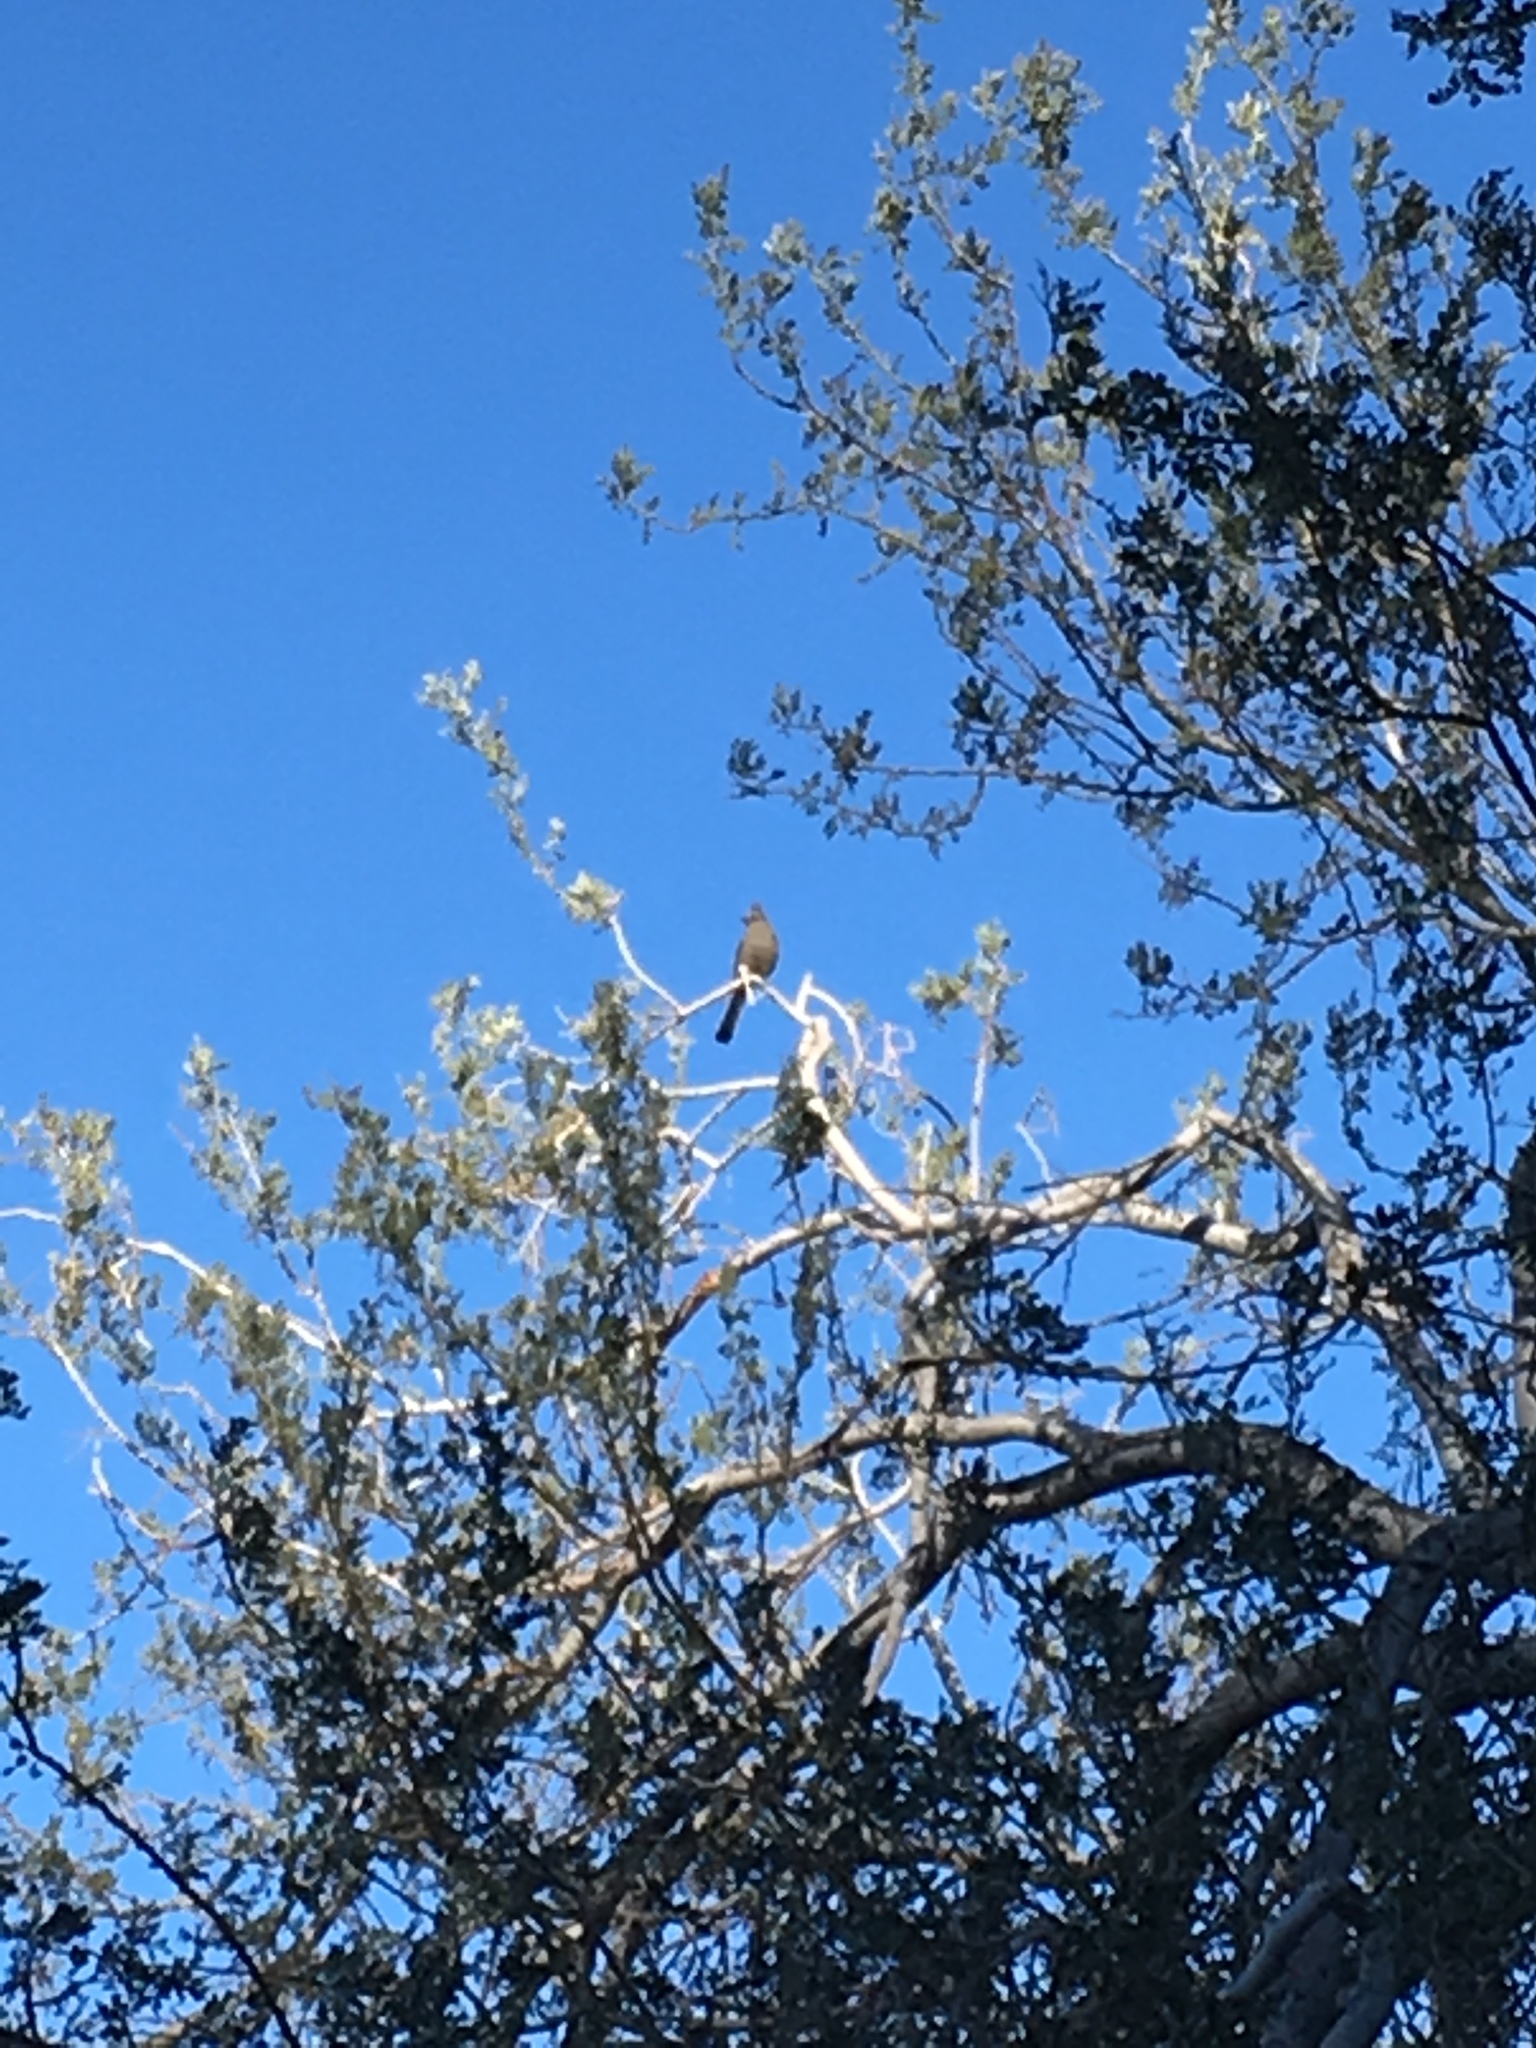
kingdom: Animalia
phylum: Chordata
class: Aves
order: Passeriformes
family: Ptilogonatidae
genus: Phainopepla
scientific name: Phainopepla nitens
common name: Phainopepla
